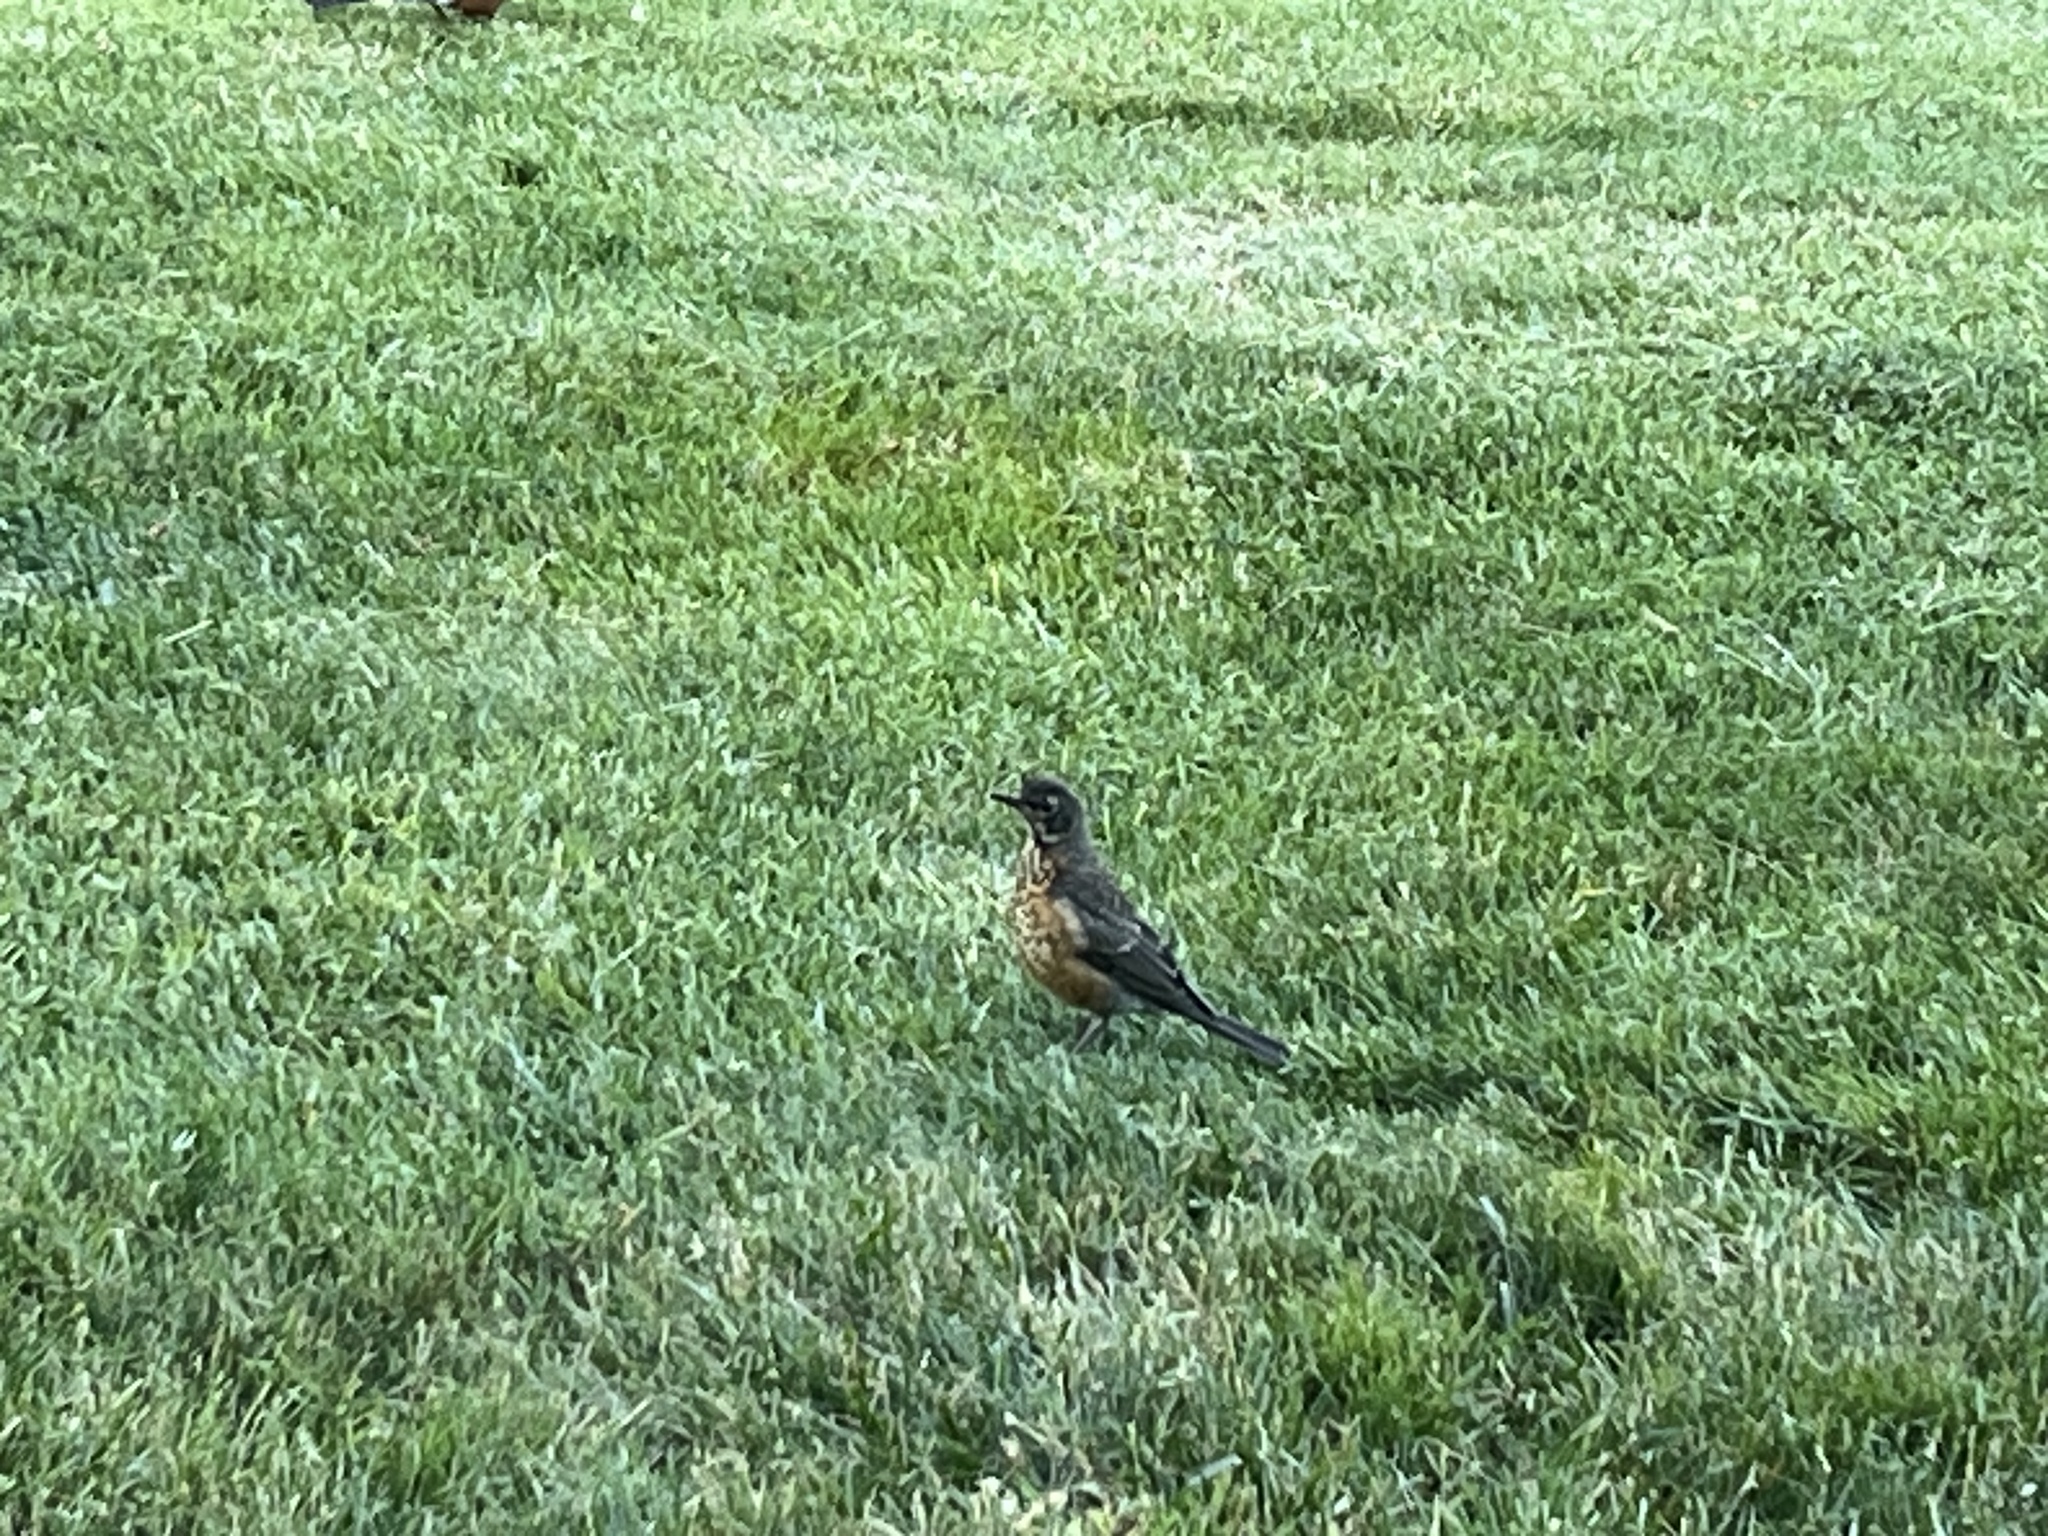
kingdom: Animalia
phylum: Chordata
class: Aves
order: Passeriformes
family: Turdidae
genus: Turdus
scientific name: Turdus migratorius
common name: American robin
